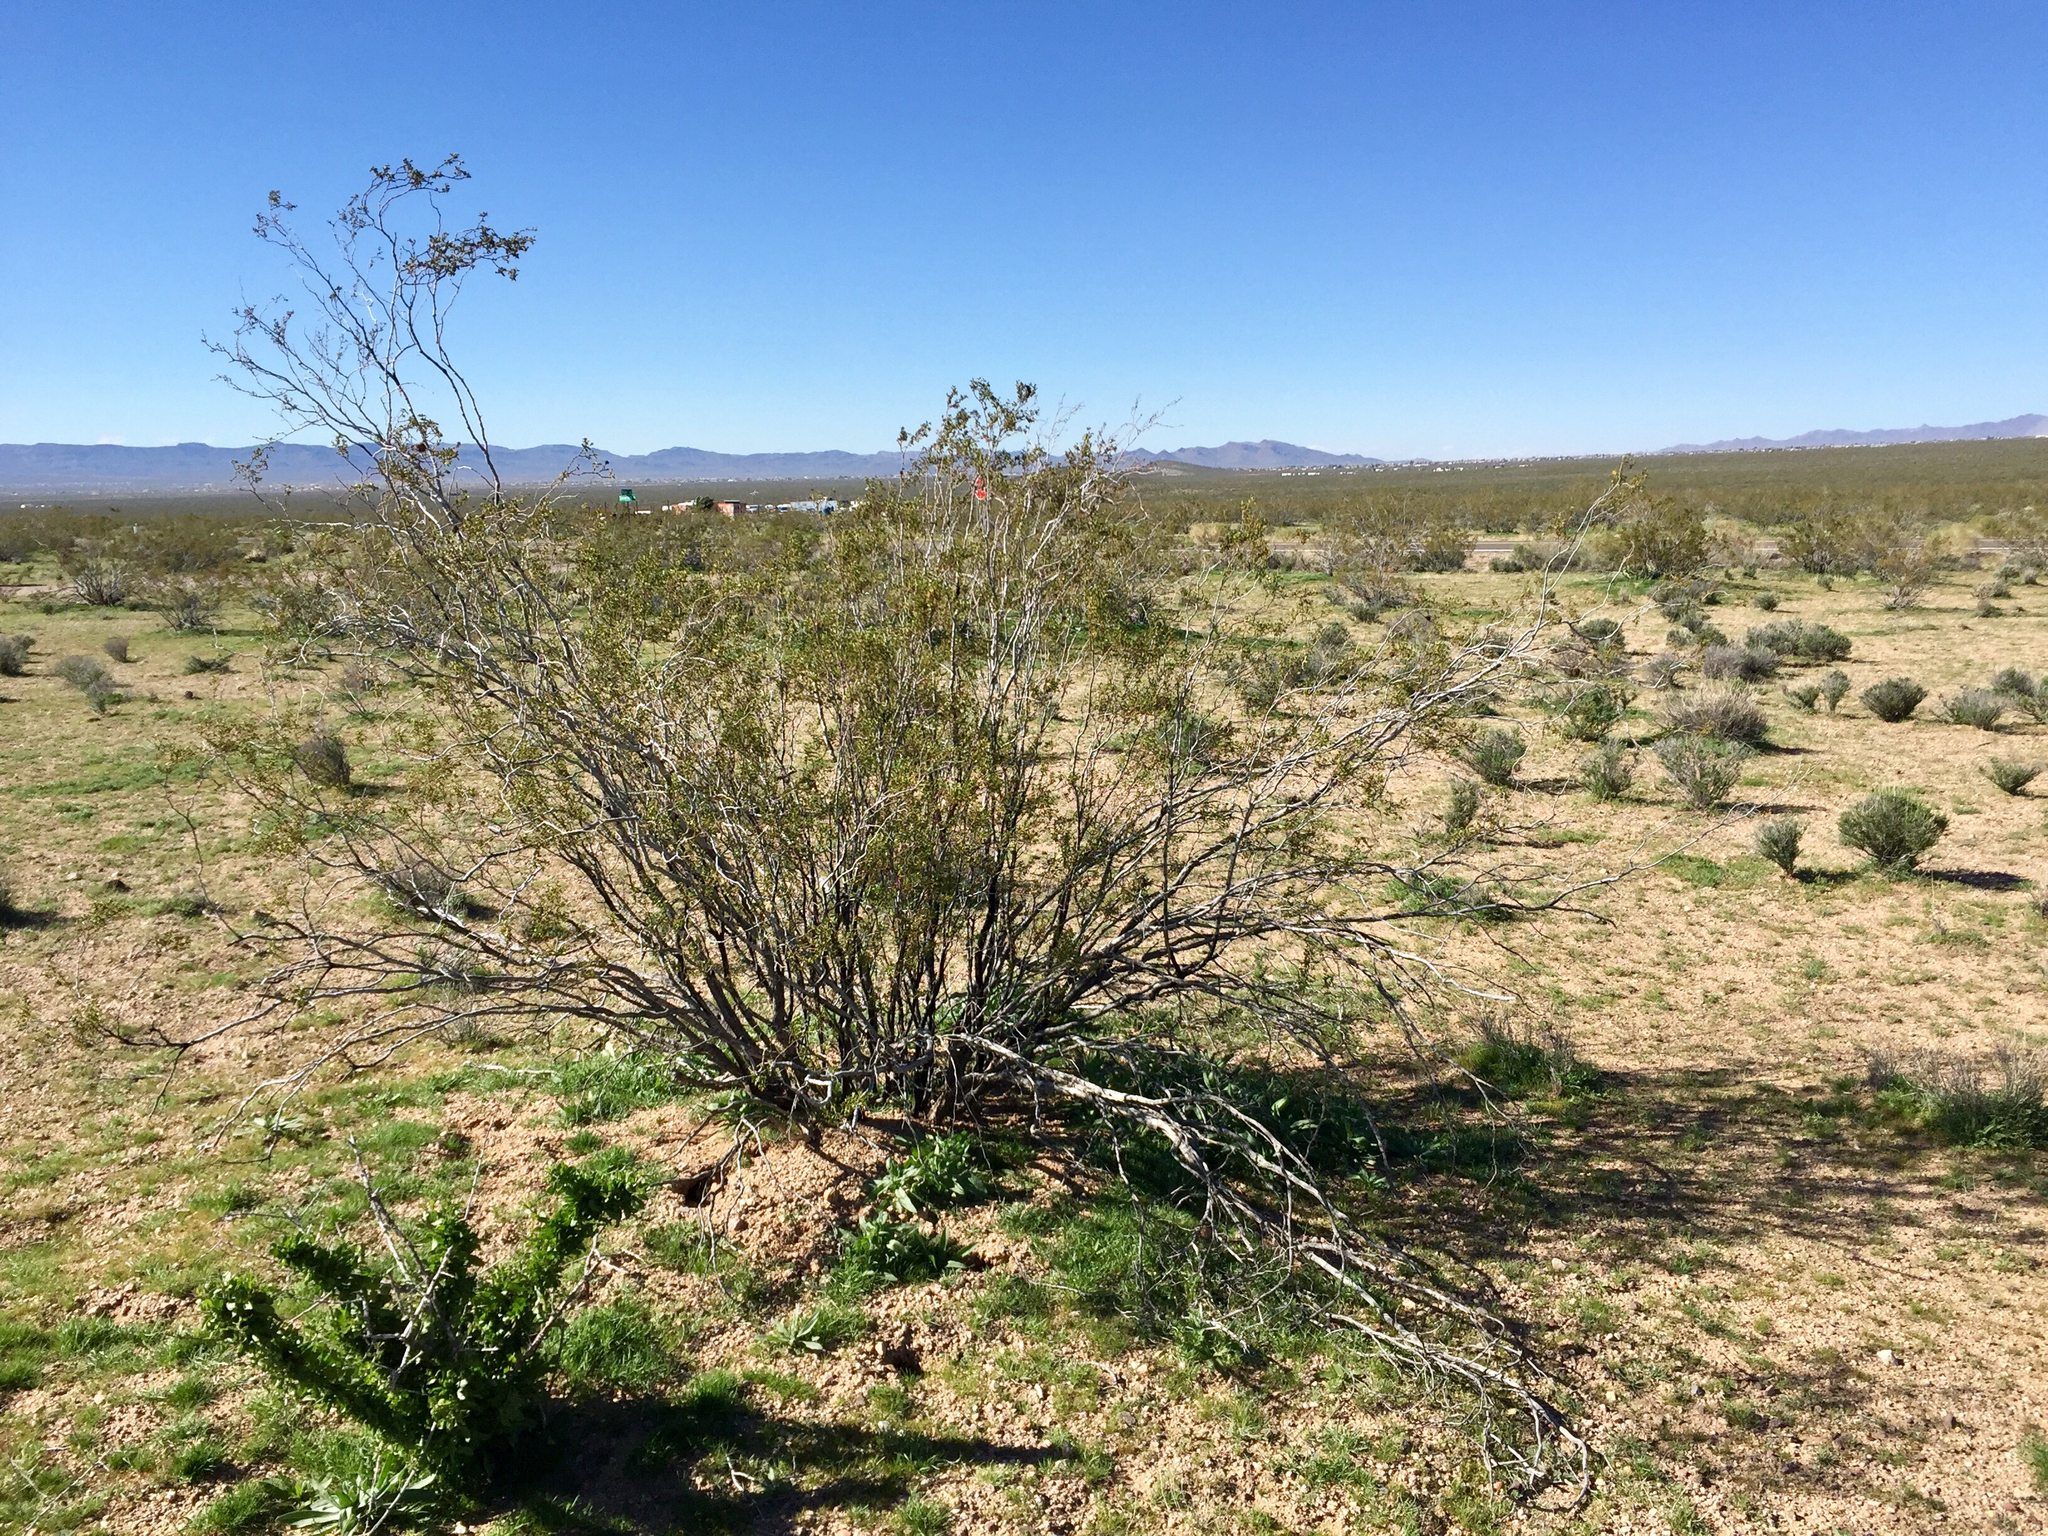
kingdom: Plantae
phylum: Tracheophyta
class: Magnoliopsida
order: Zygophyllales
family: Zygophyllaceae
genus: Larrea
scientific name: Larrea tridentata
